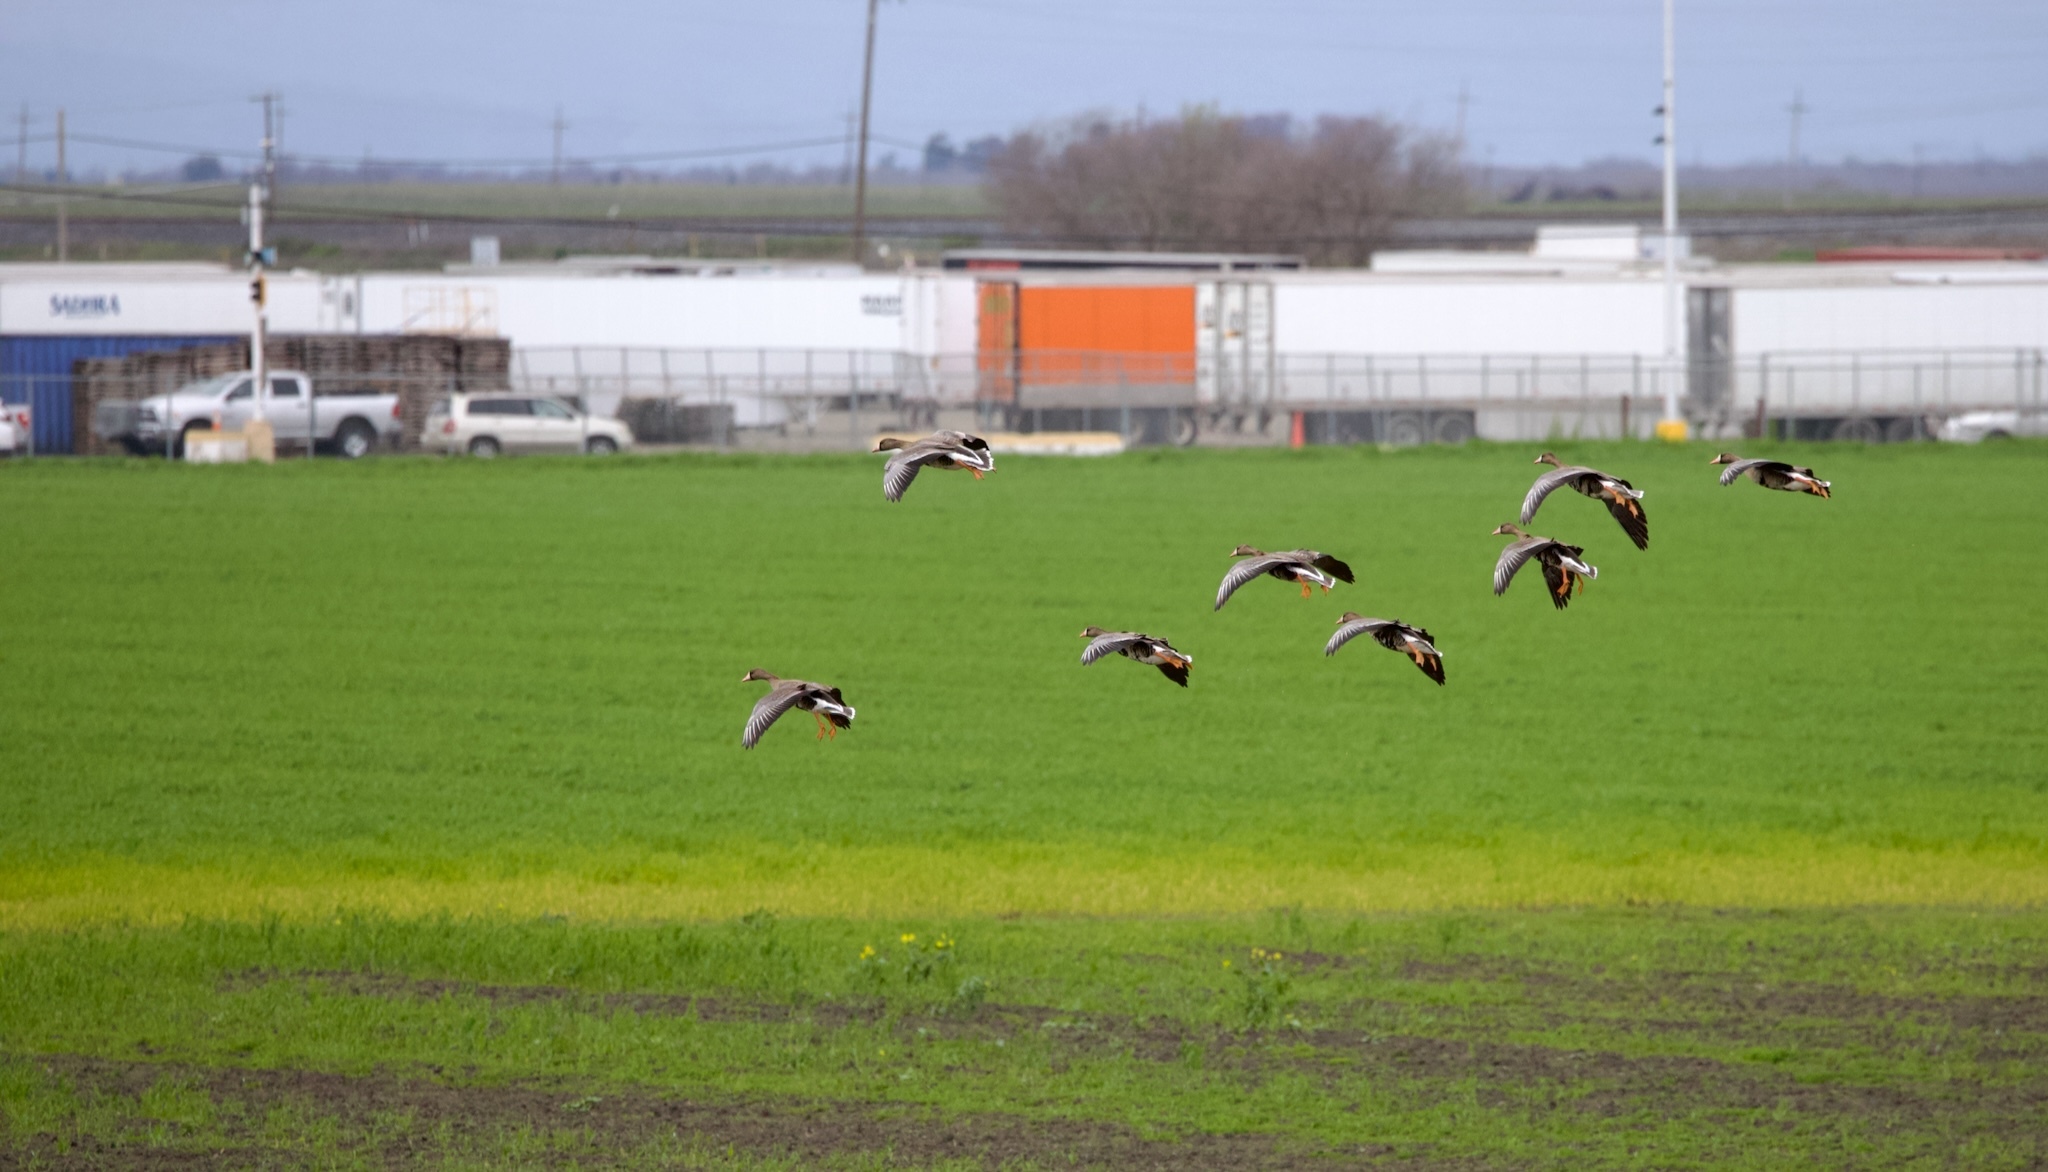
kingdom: Animalia
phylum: Chordata
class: Aves
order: Anseriformes
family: Anatidae
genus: Anser
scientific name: Anser albifrons
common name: Greater white-fronted goose
